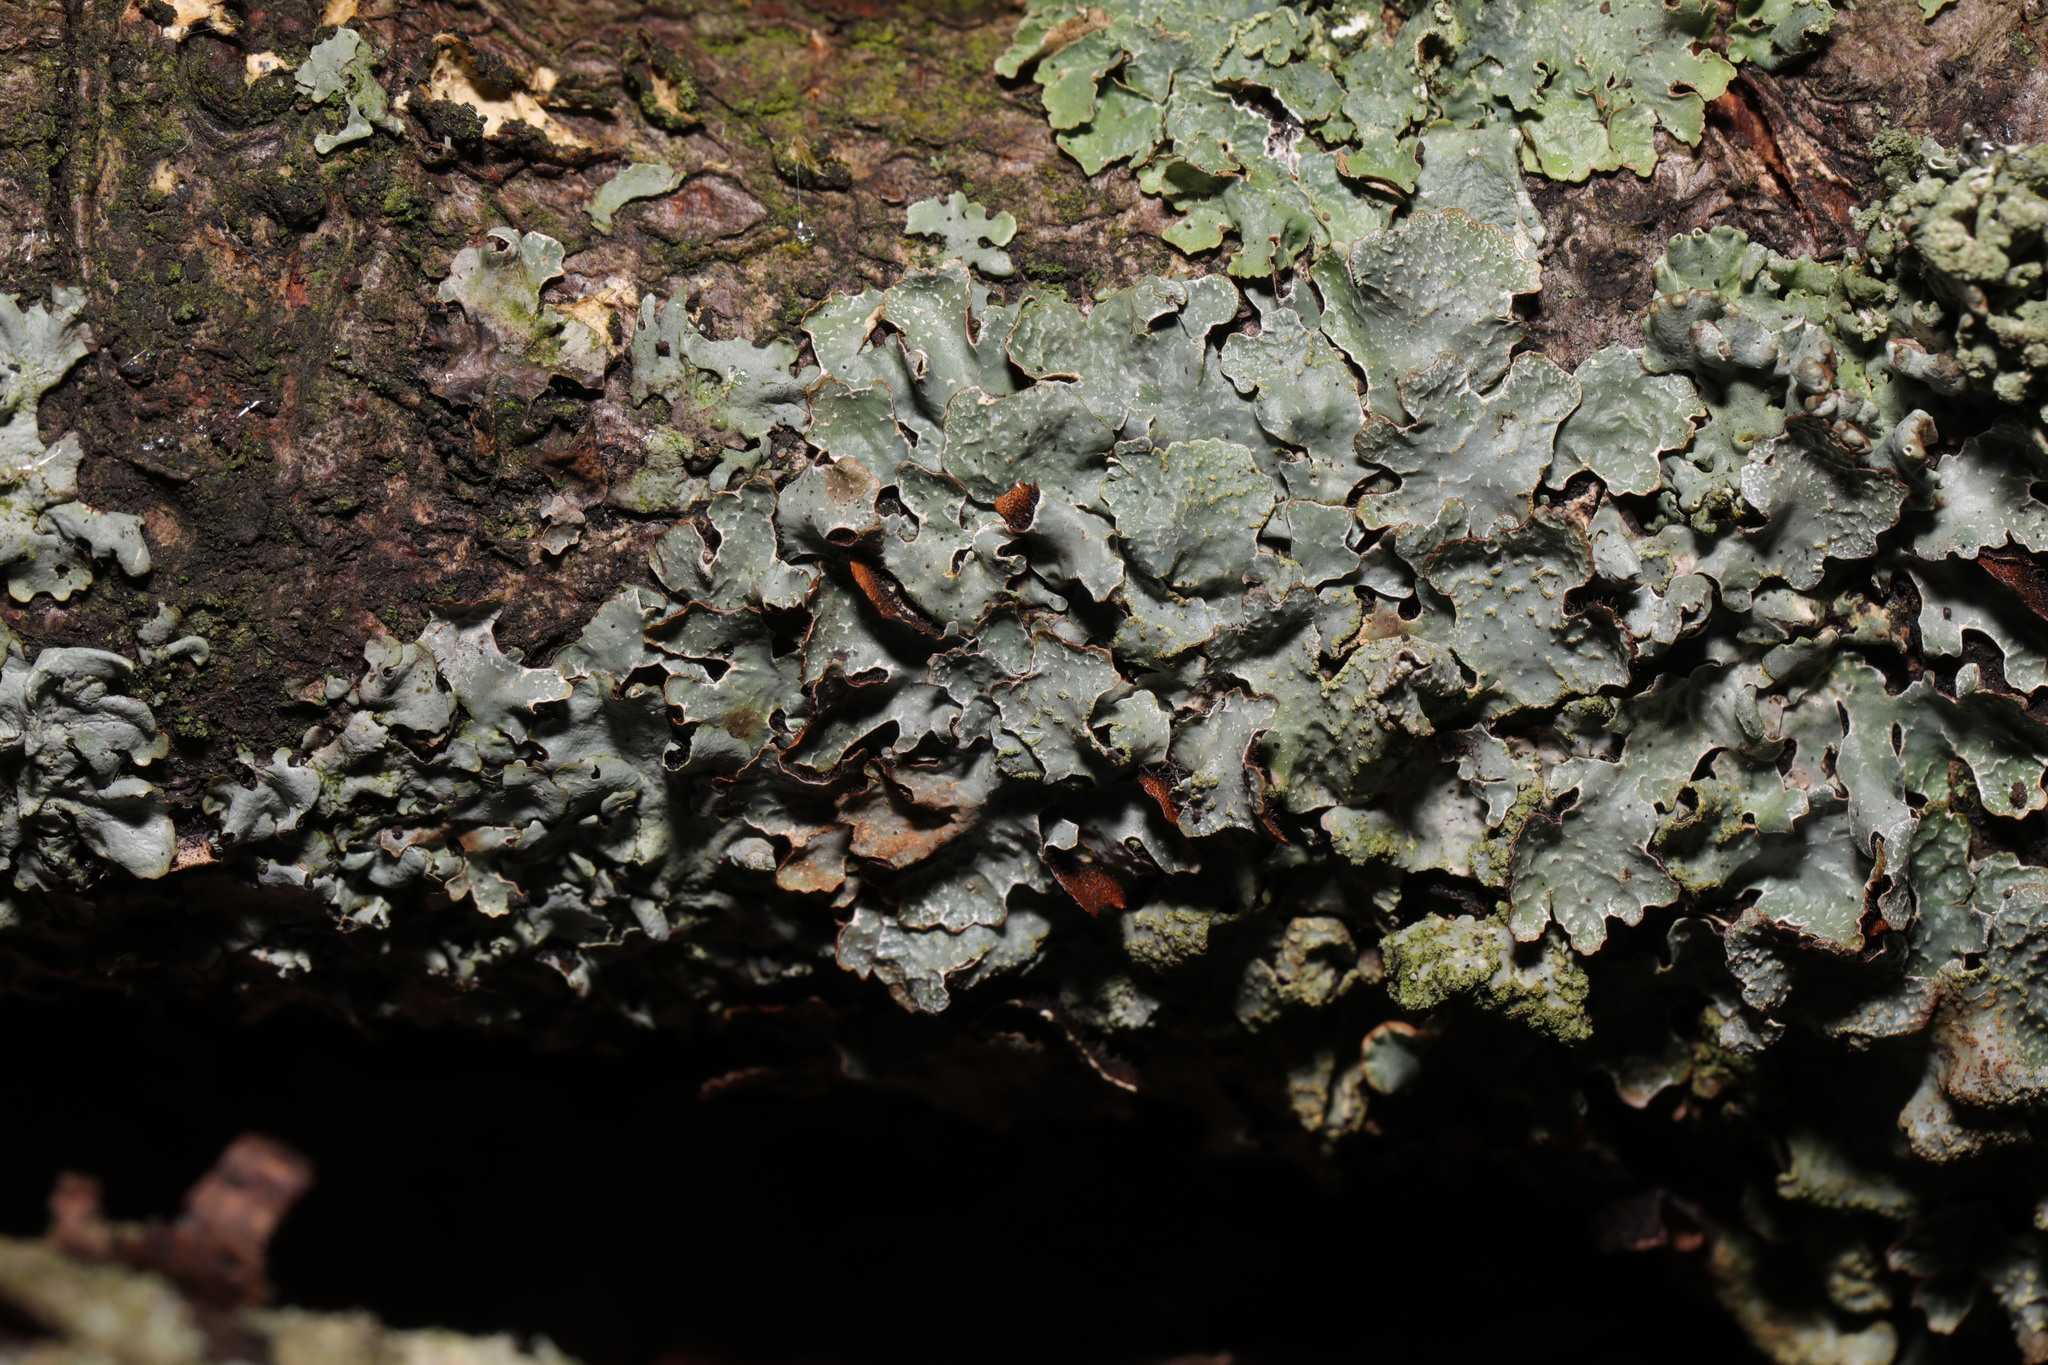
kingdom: Fungi
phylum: Ascomycota
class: Lecanoromycetes
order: Lecanorales
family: Parmeliaceae
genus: Parmelia
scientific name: Parmelia sulcata
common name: Netted shield lichen
